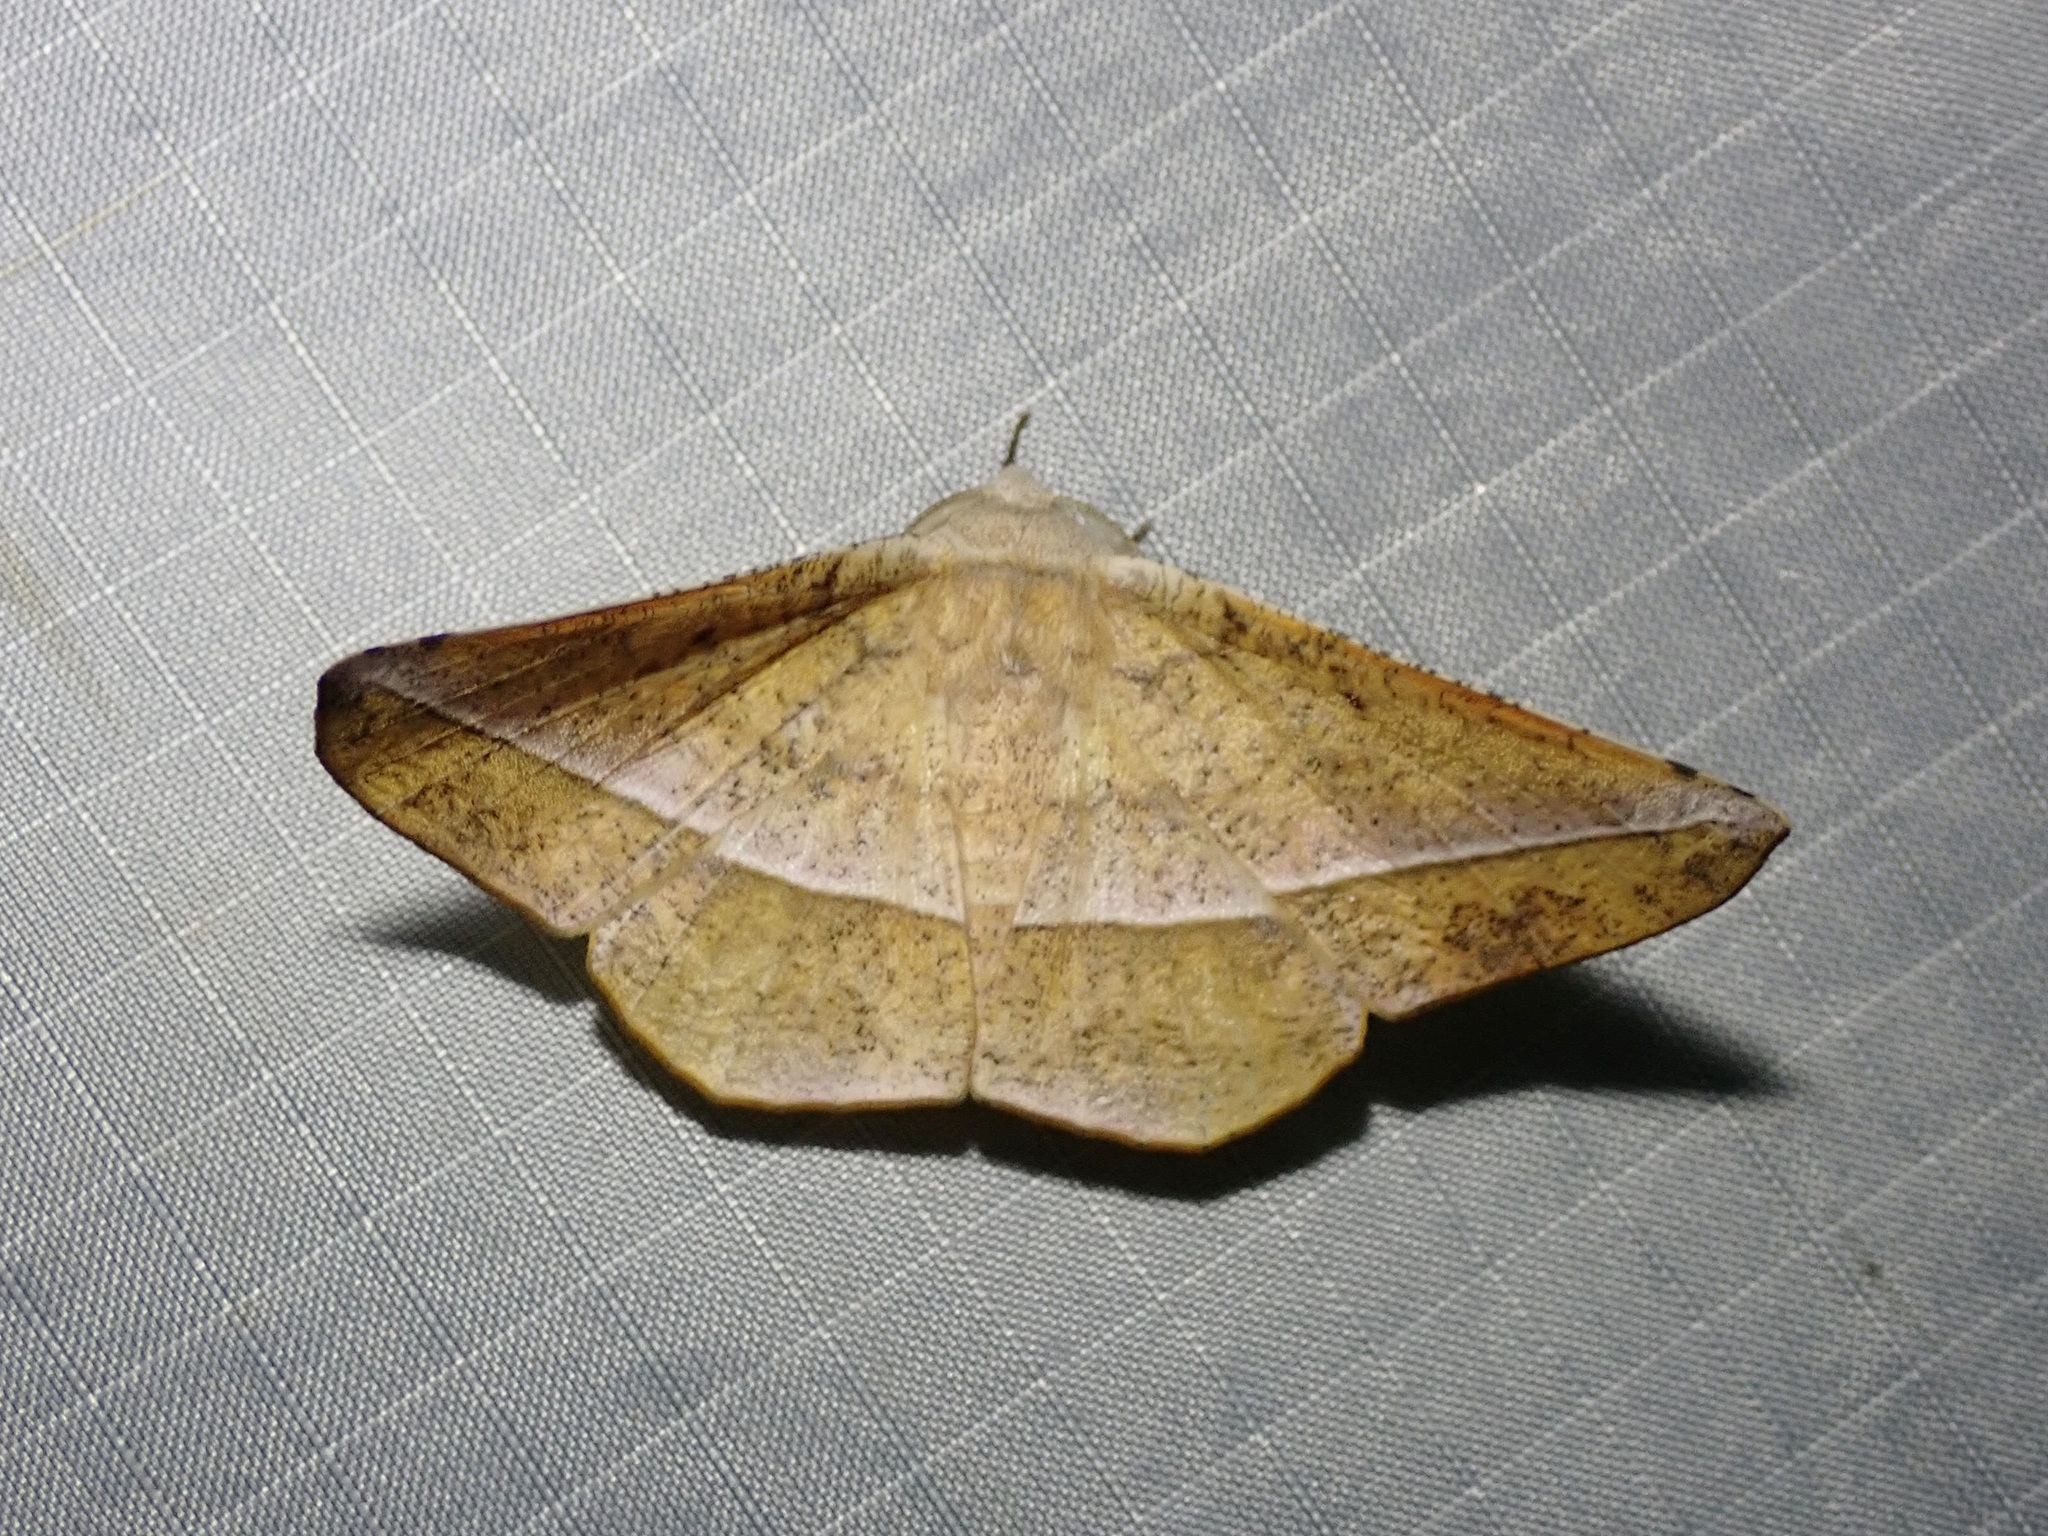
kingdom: Animalia
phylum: Arthropoda
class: Insecta
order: Lepidoptera
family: Geometridae
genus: Sarcinodes
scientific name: Sarcinodes tornubilatus
